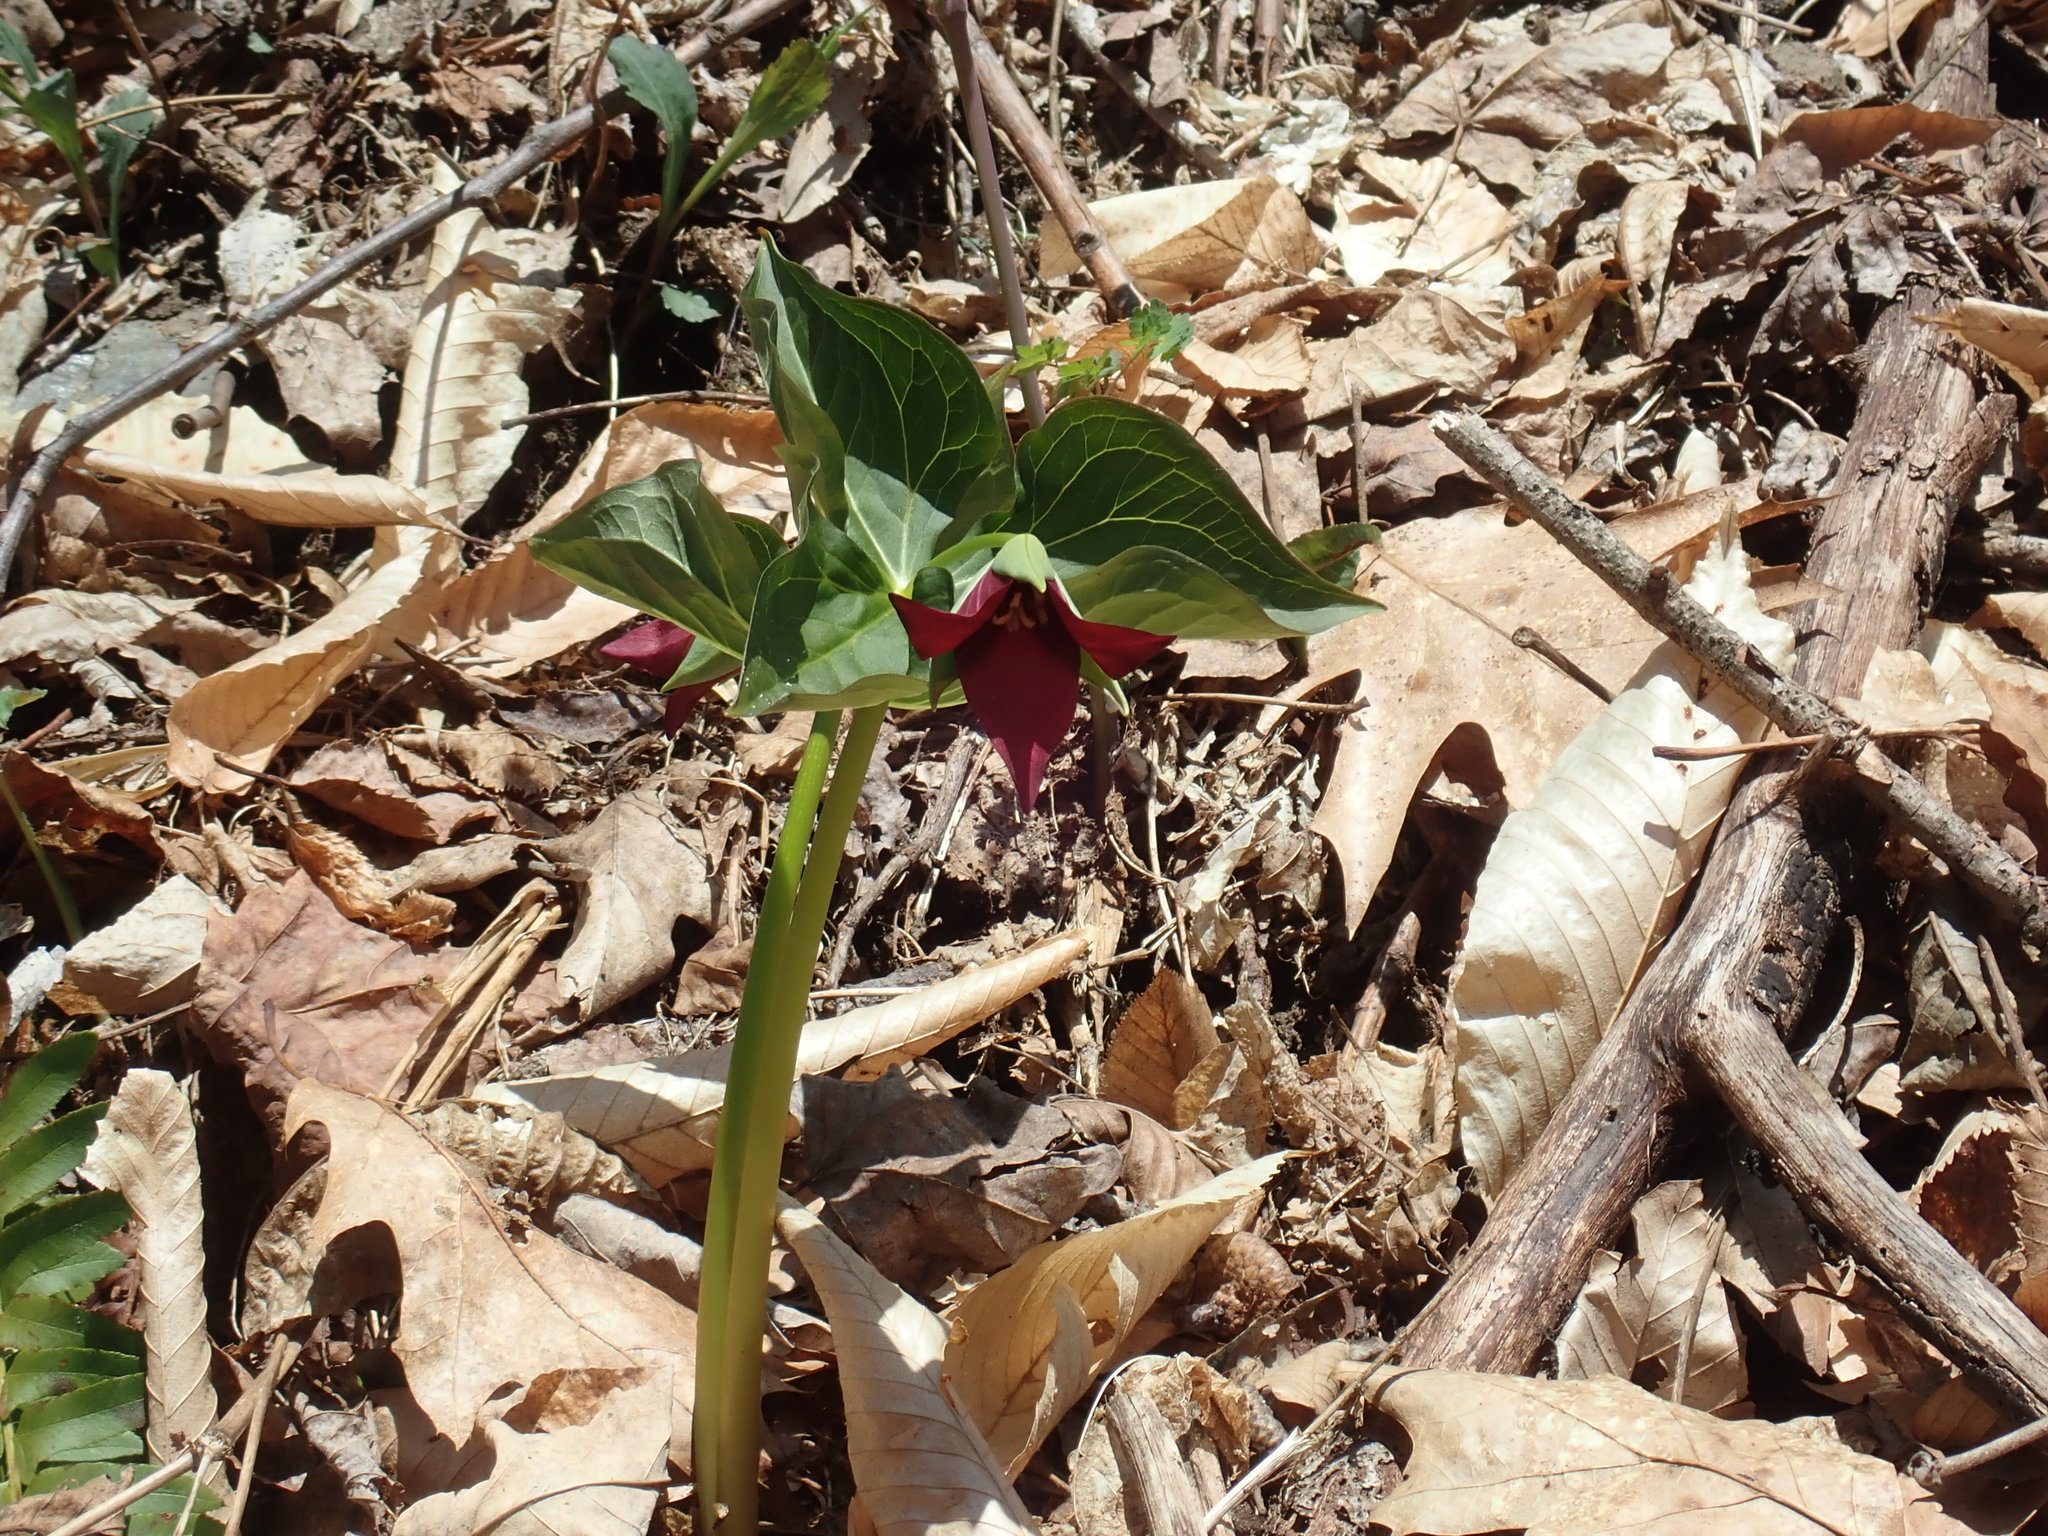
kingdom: Plantae
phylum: Tracheophyta
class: Liliopsida
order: Liliales
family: Melanthiaceae
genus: Trillium
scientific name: Trillium erectum
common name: Purple trillium
